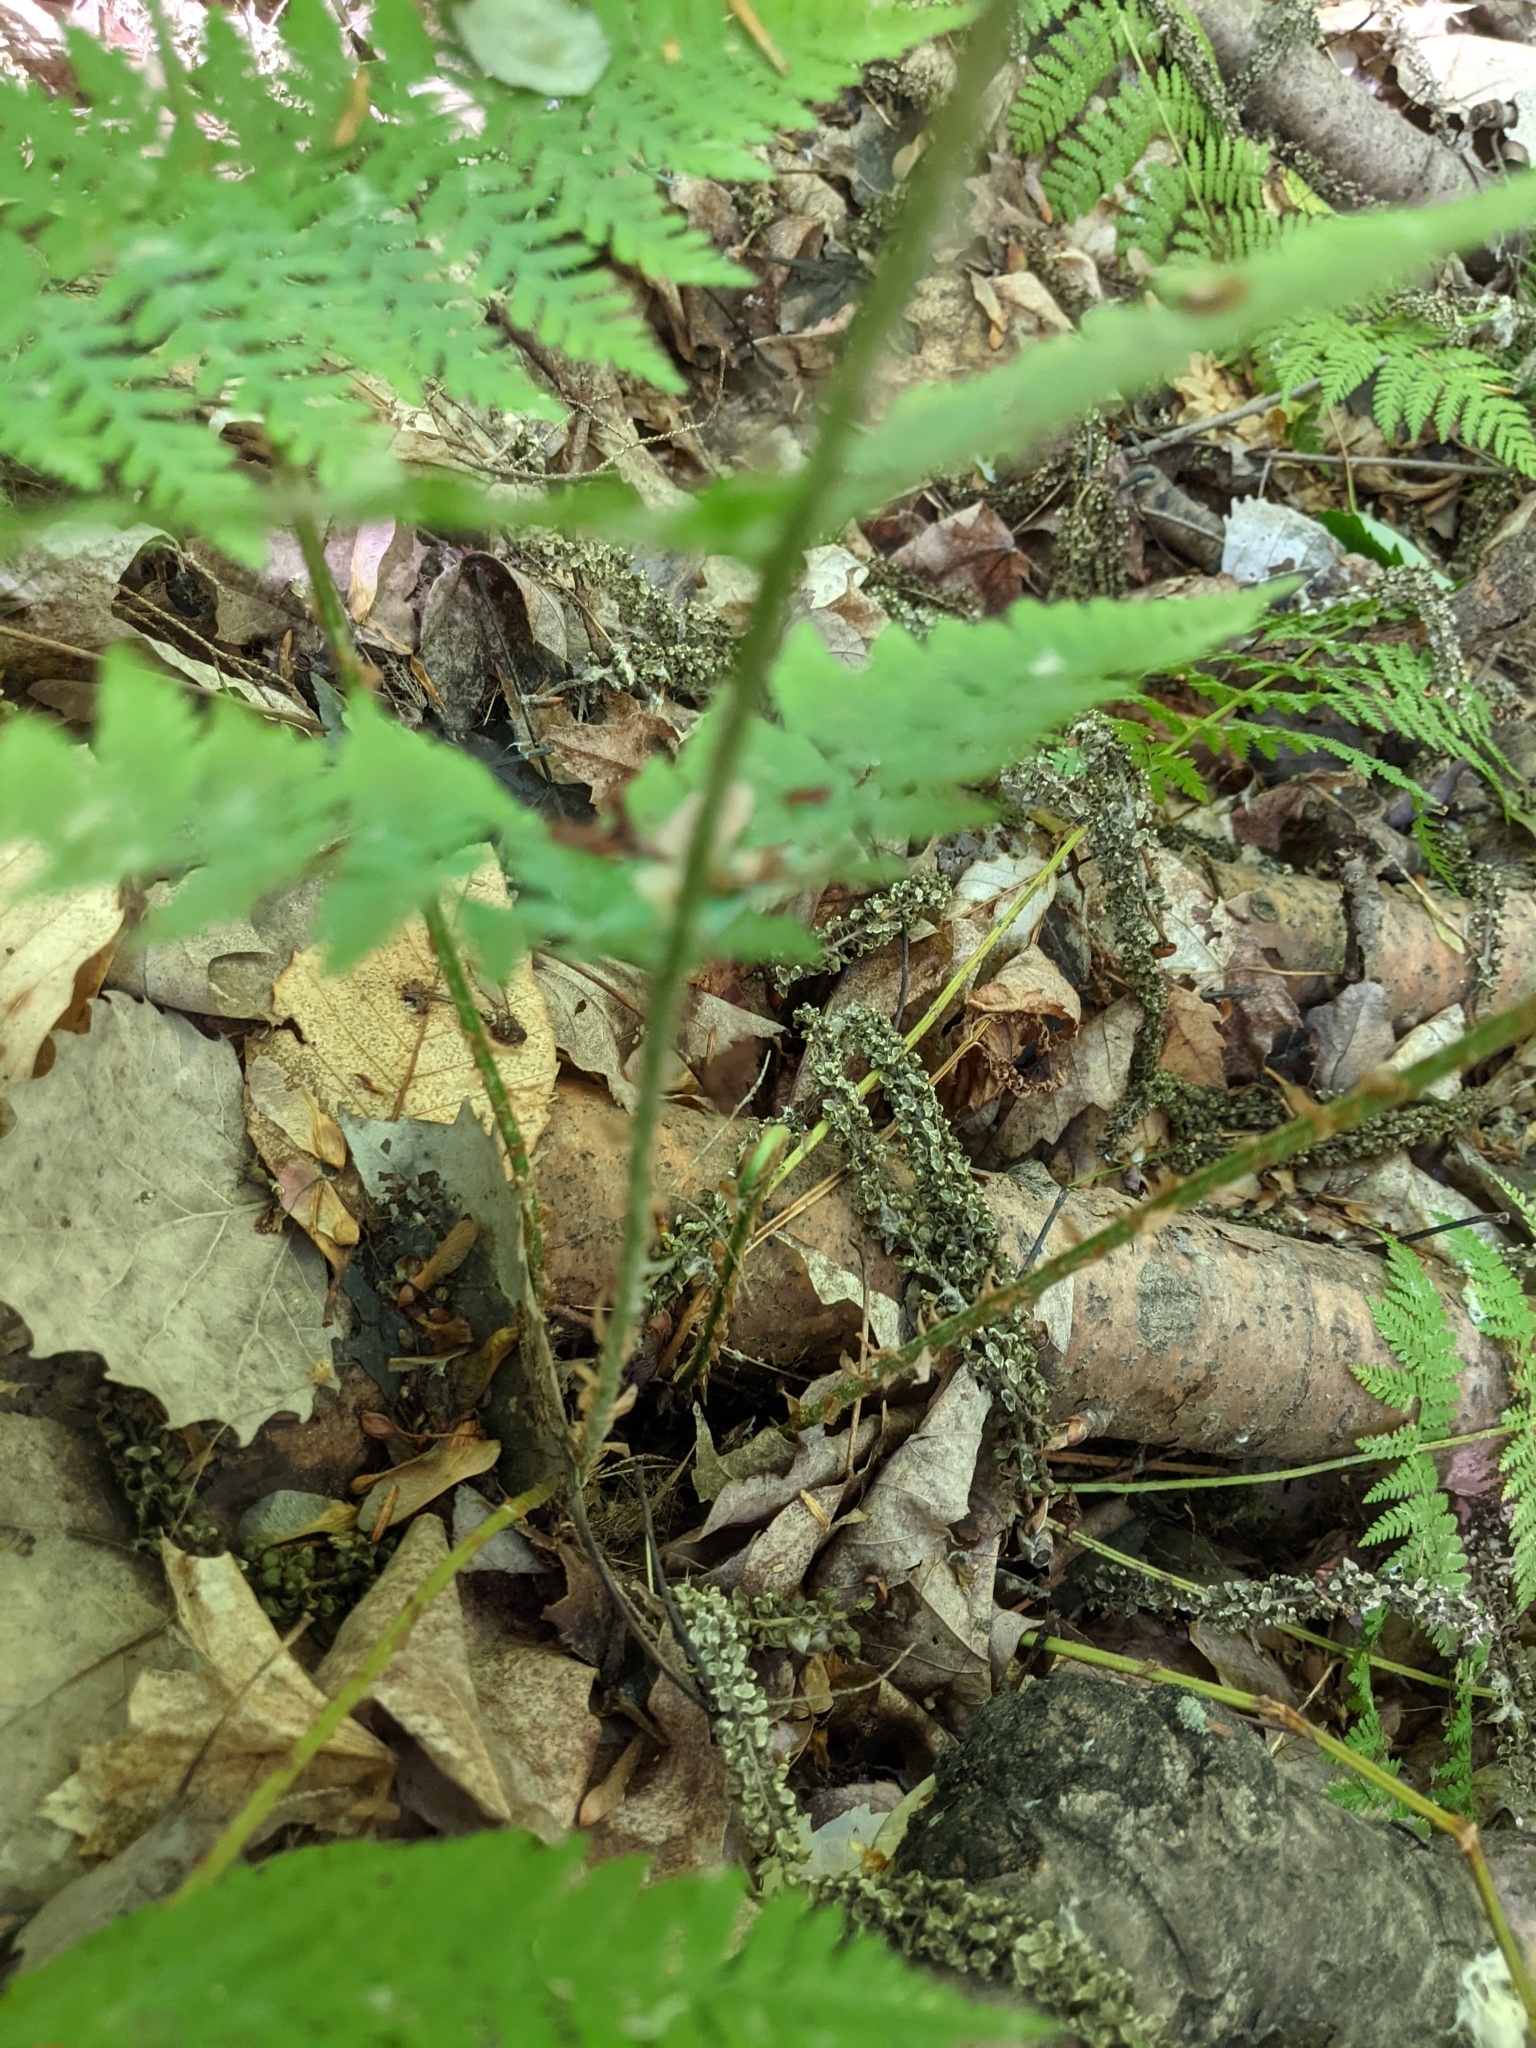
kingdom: Plantae
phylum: Tracheophyta
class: Polypodiopsida
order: Polypodiales
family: Dryopteridaceae
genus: Dryopteris
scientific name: Dryopteris intermedia
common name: Evergreen wood fern
